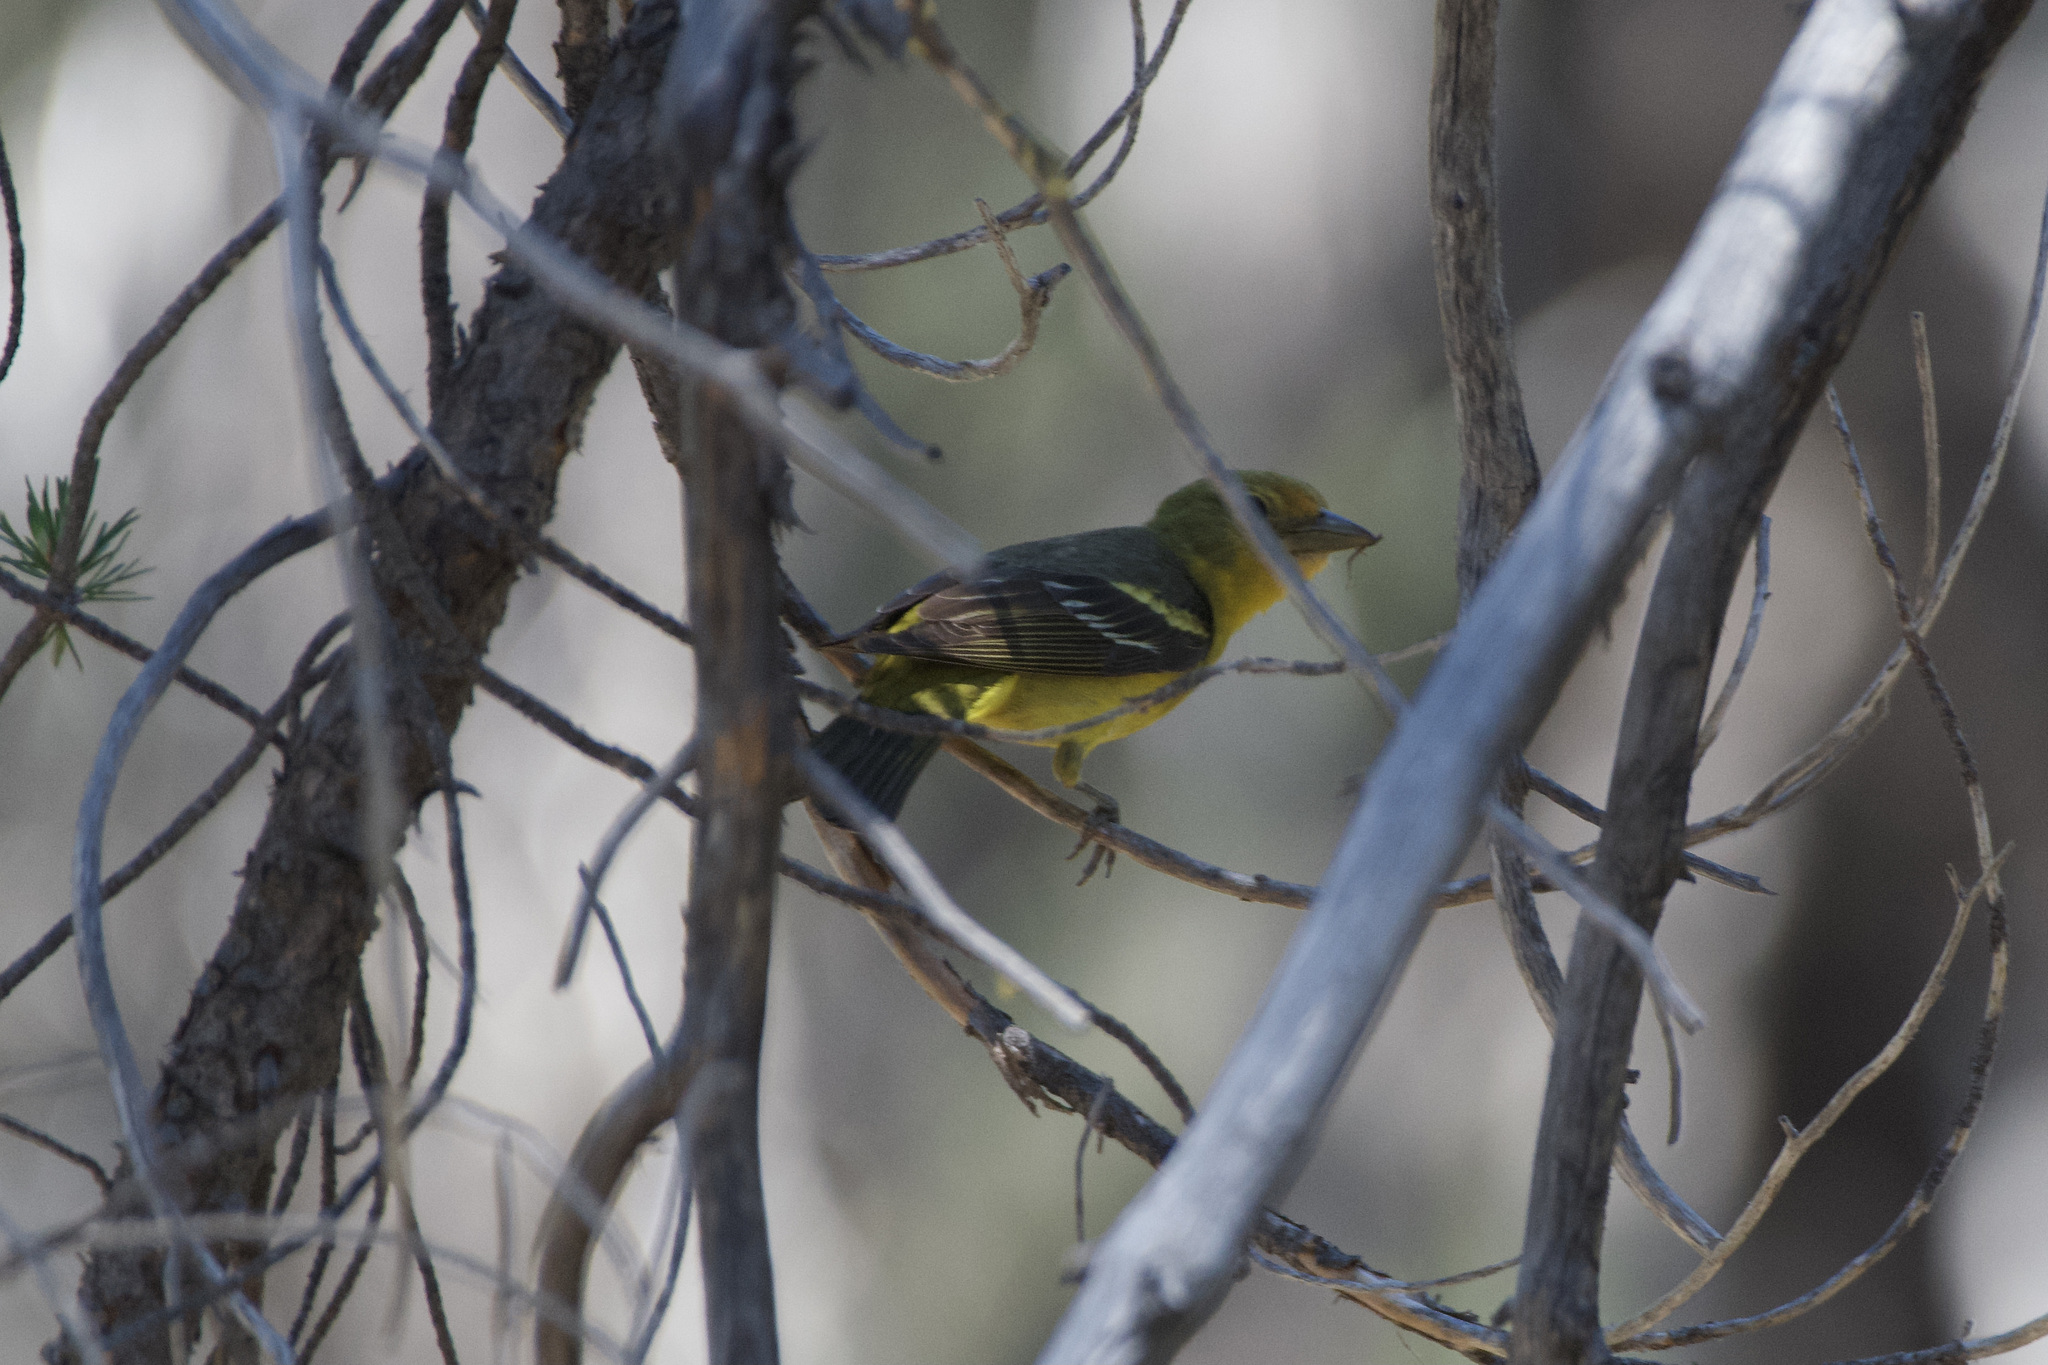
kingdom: Animalia
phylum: Chordata
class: Aves
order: Passeriformes
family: Cardinalidae
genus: Piranga
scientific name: Piranga ludoviciana
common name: Western tanager
